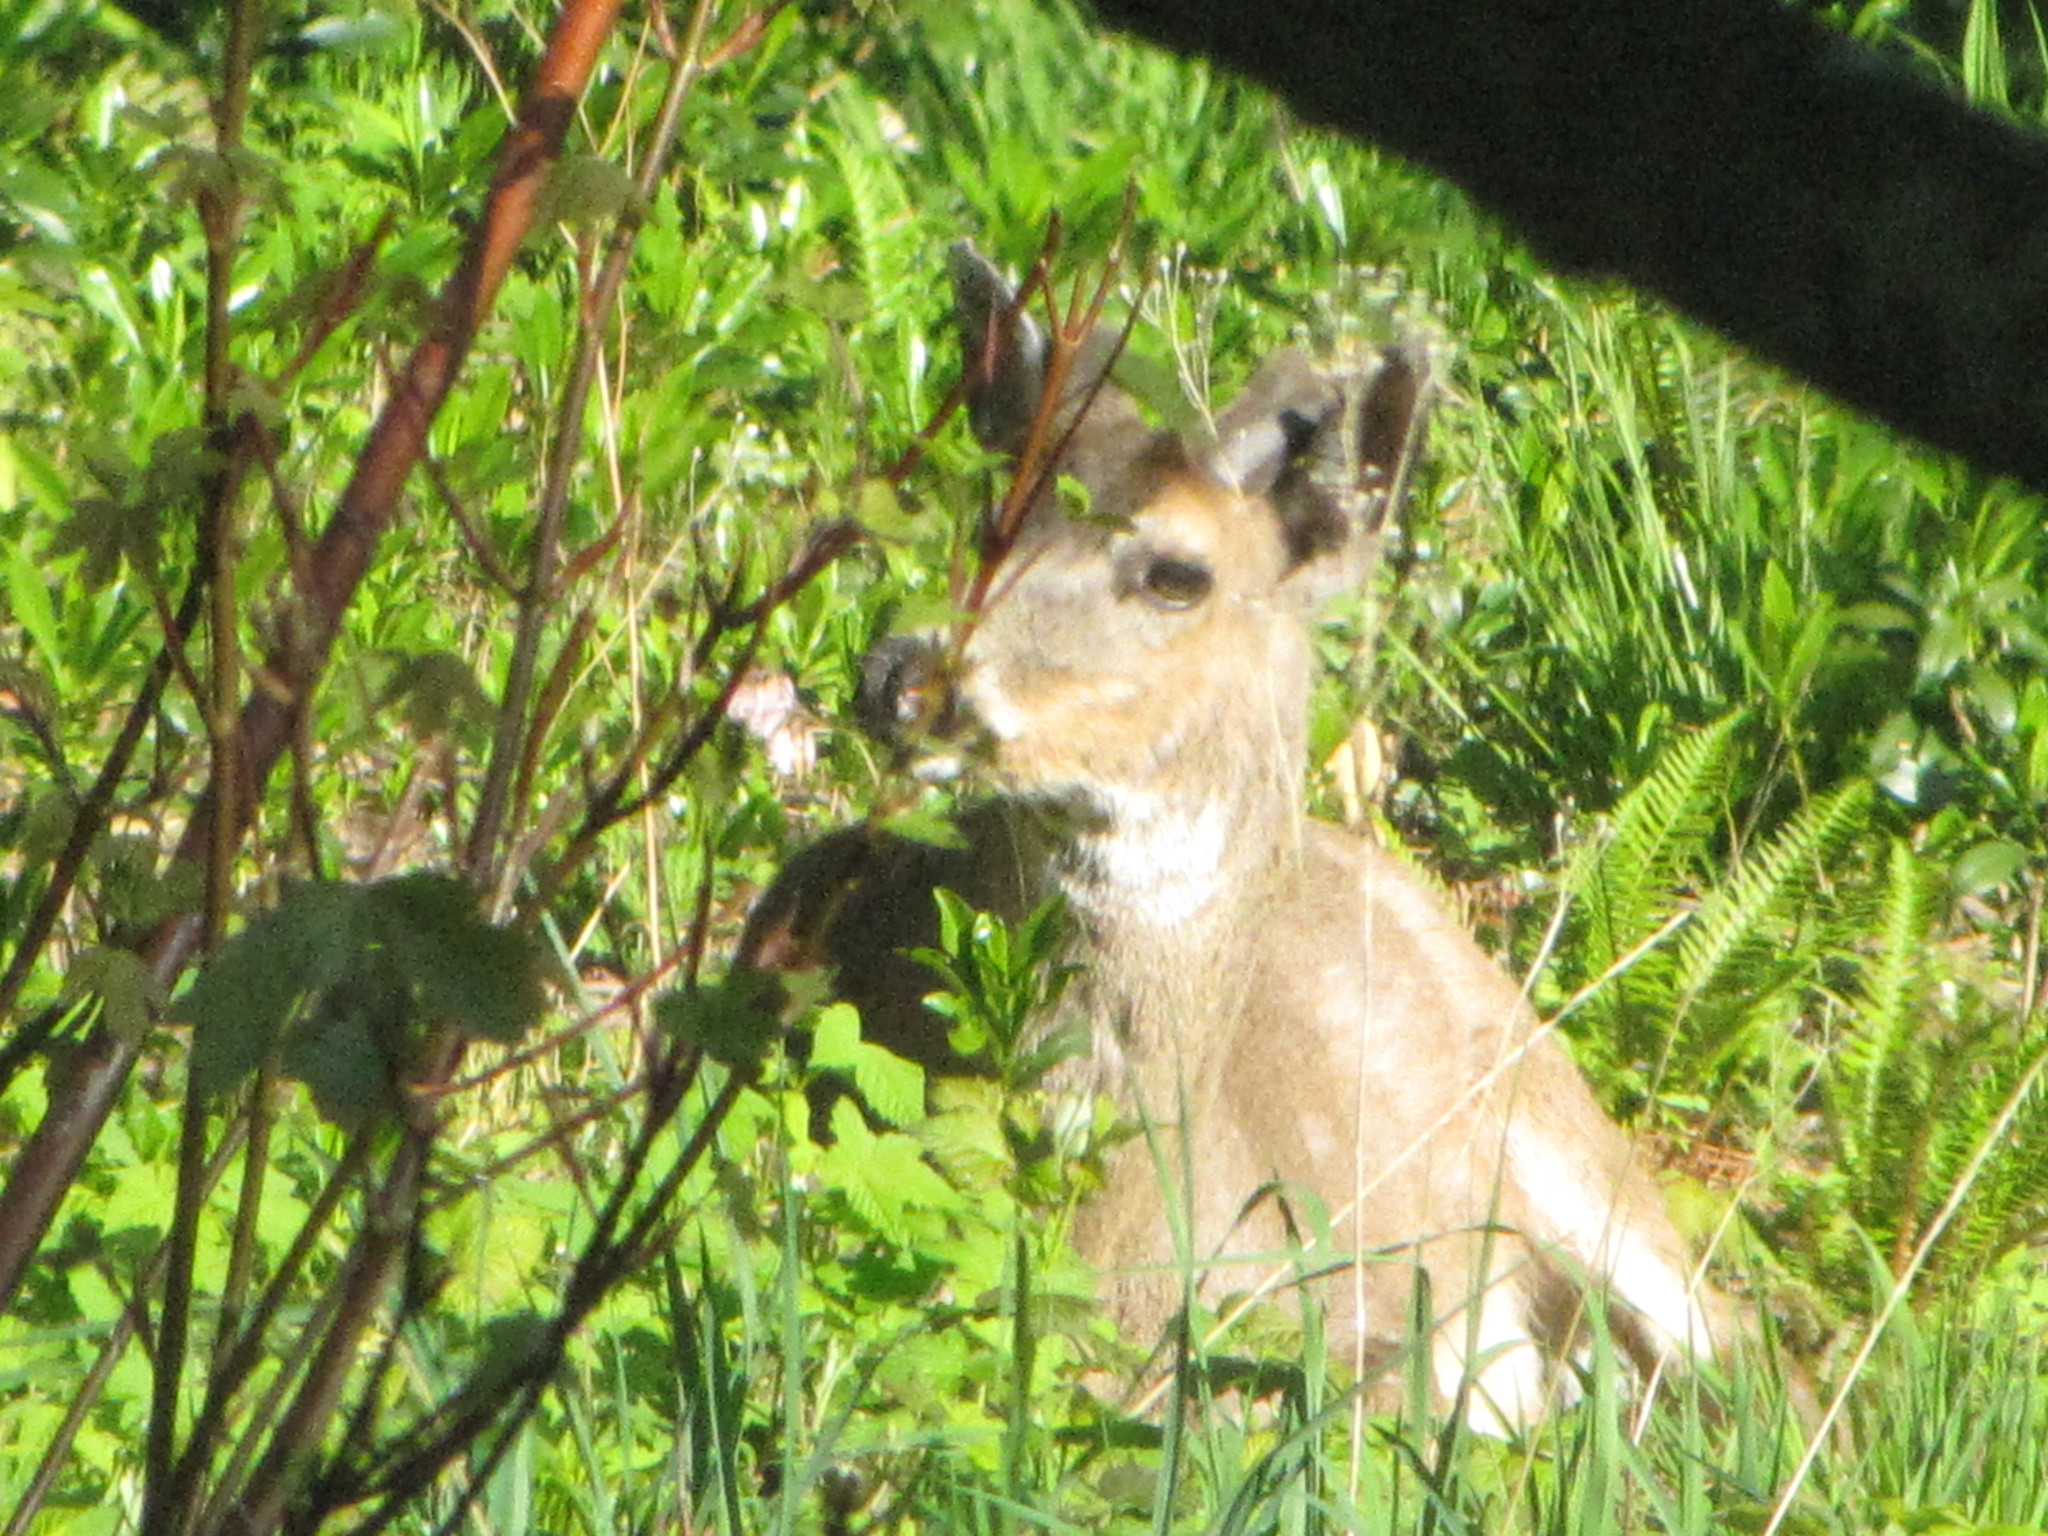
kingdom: Animalia
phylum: Chordata
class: Mammalia
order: Artiodactyla
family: Cervidae
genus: Odocoileus
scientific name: Odocoileus hemionus
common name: Mule deer
